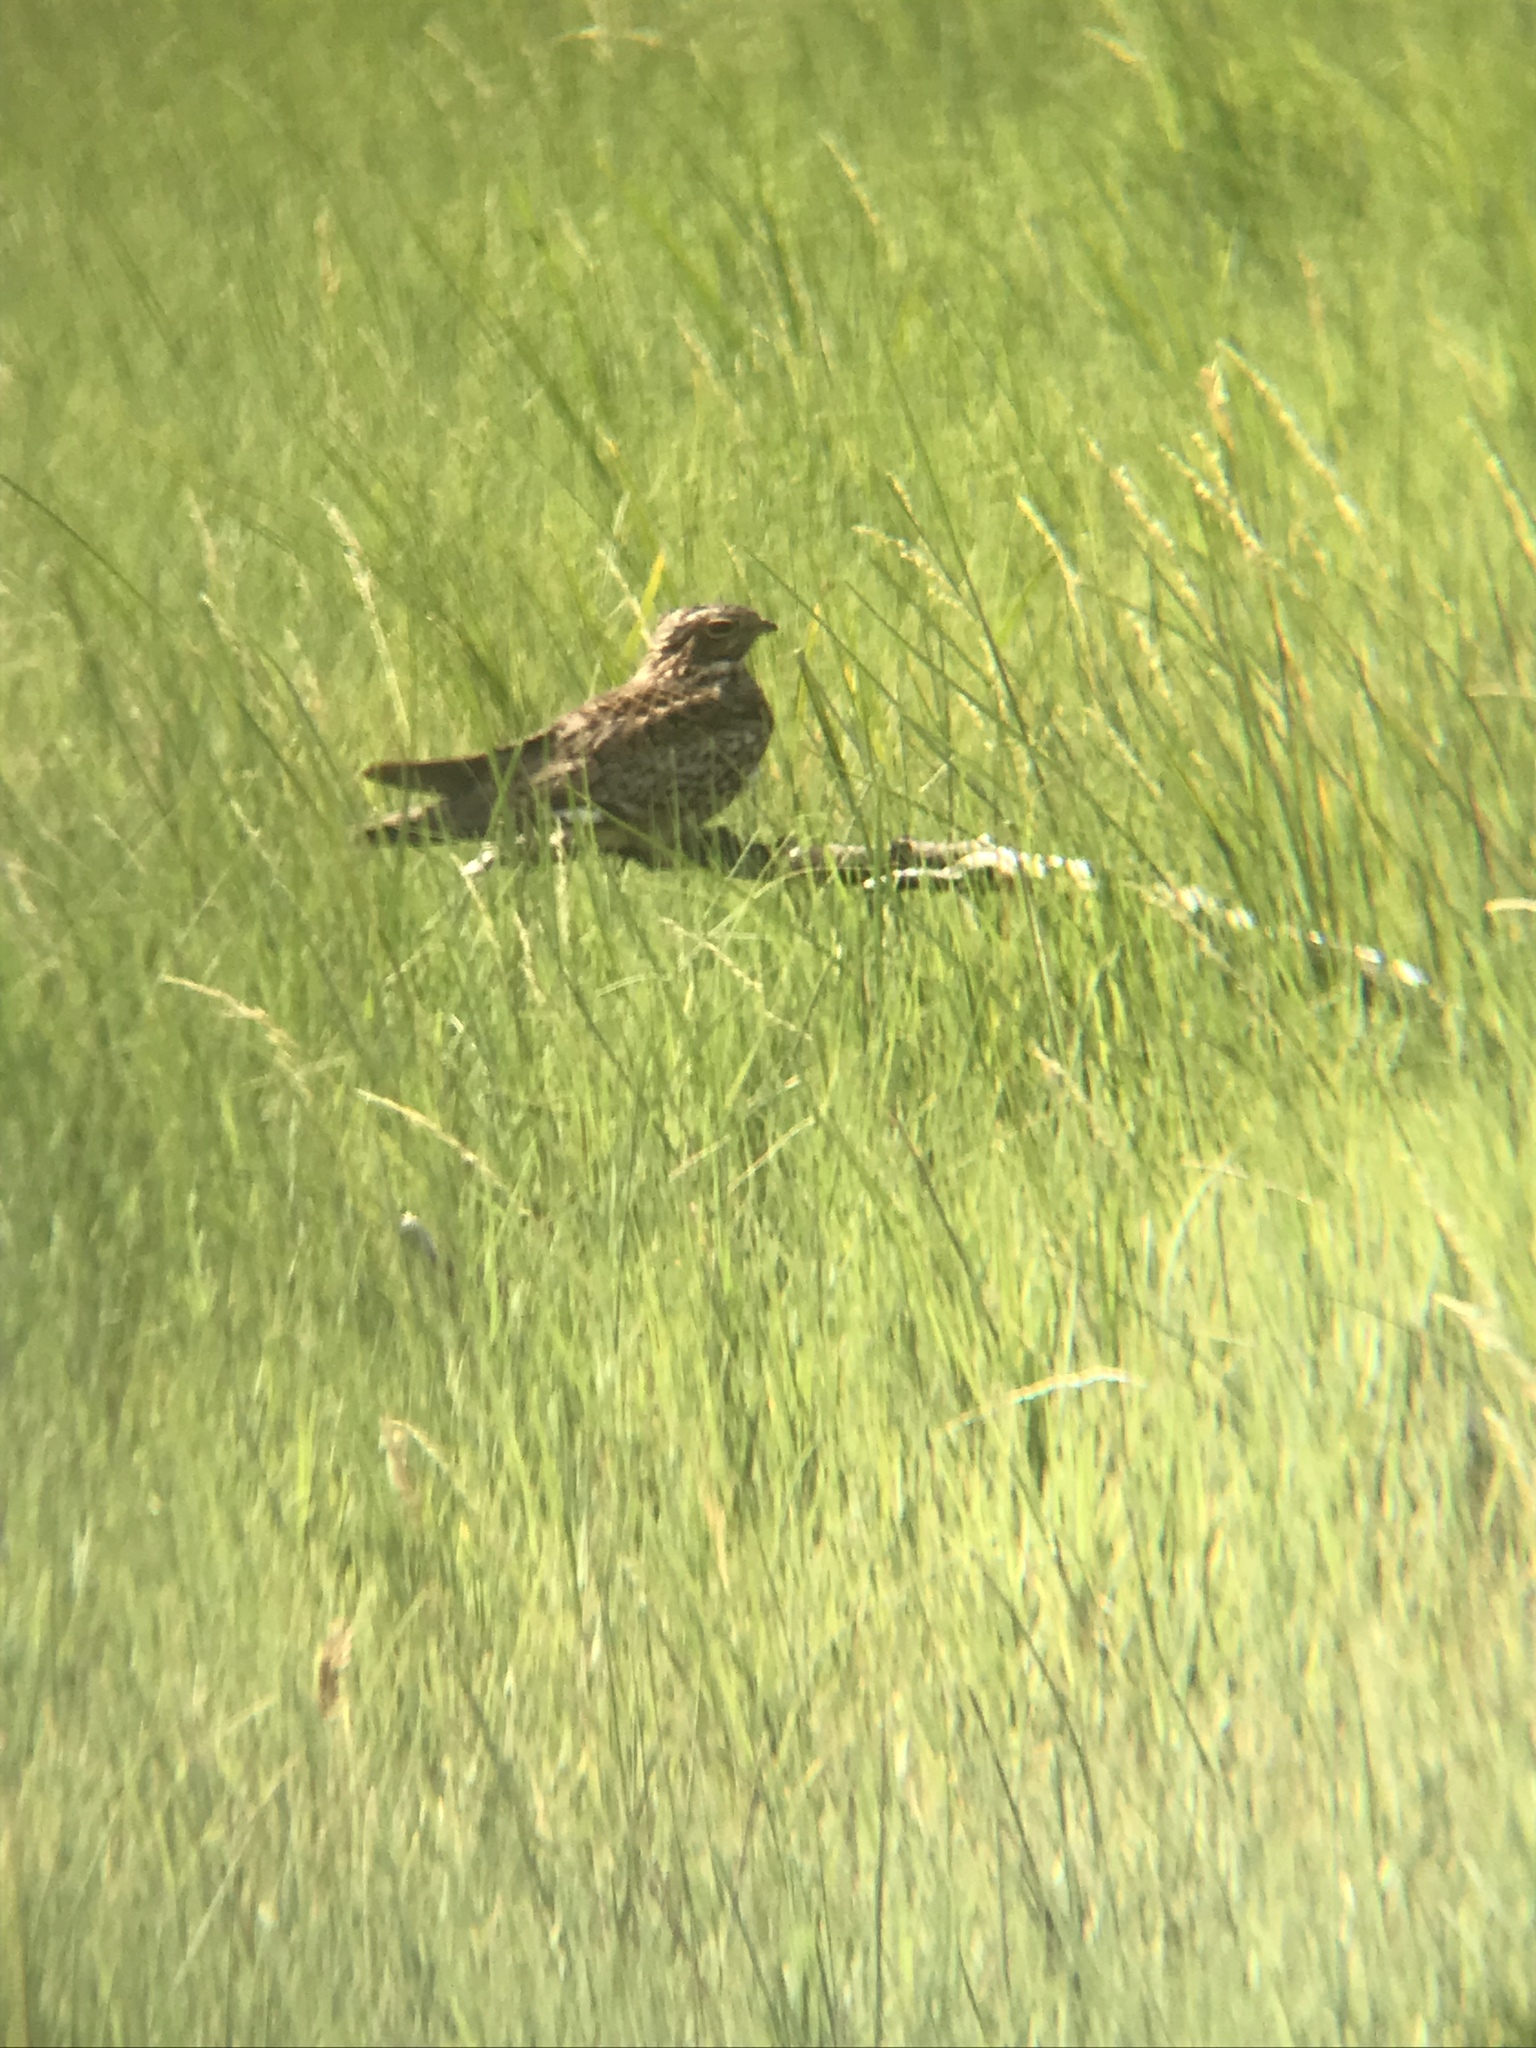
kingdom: Animalia
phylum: Chordata
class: Aves
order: Caprimulgiformes
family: Caprimulgidae
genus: Chordeiles
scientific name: Chordeiles minor
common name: Common nighthawk
